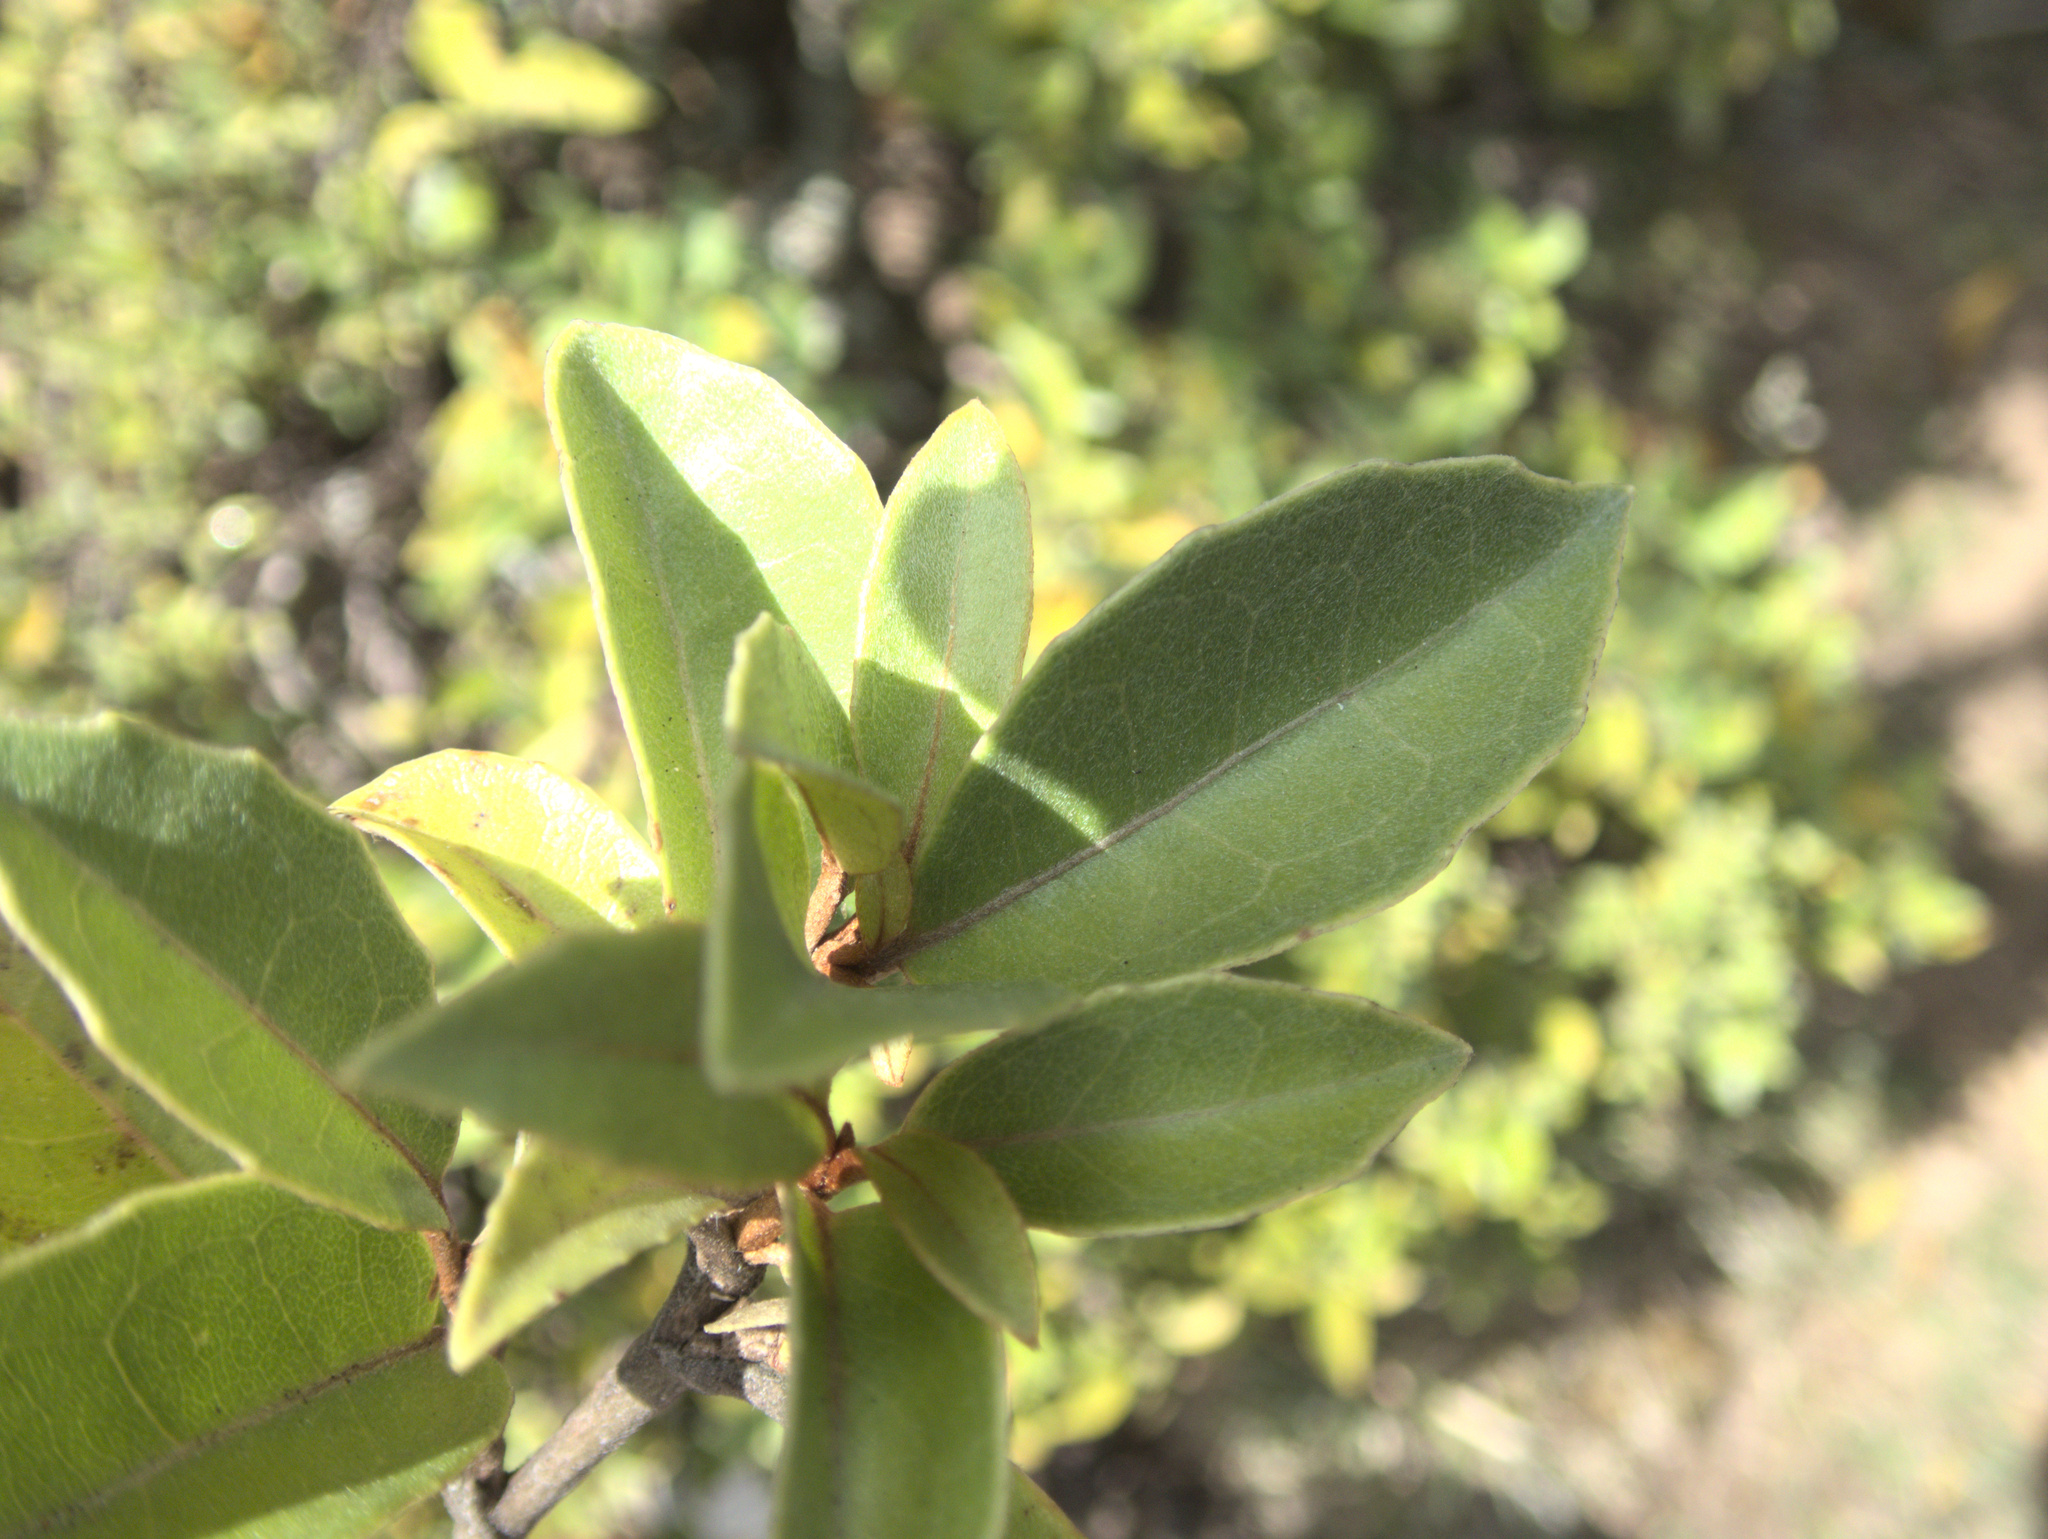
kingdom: Plantae
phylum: Tracheophyta
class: Magnoliopsida
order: Asterales
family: Asteraceae
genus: Olearia
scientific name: Olearia arborescens
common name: Glossy tree daisy
